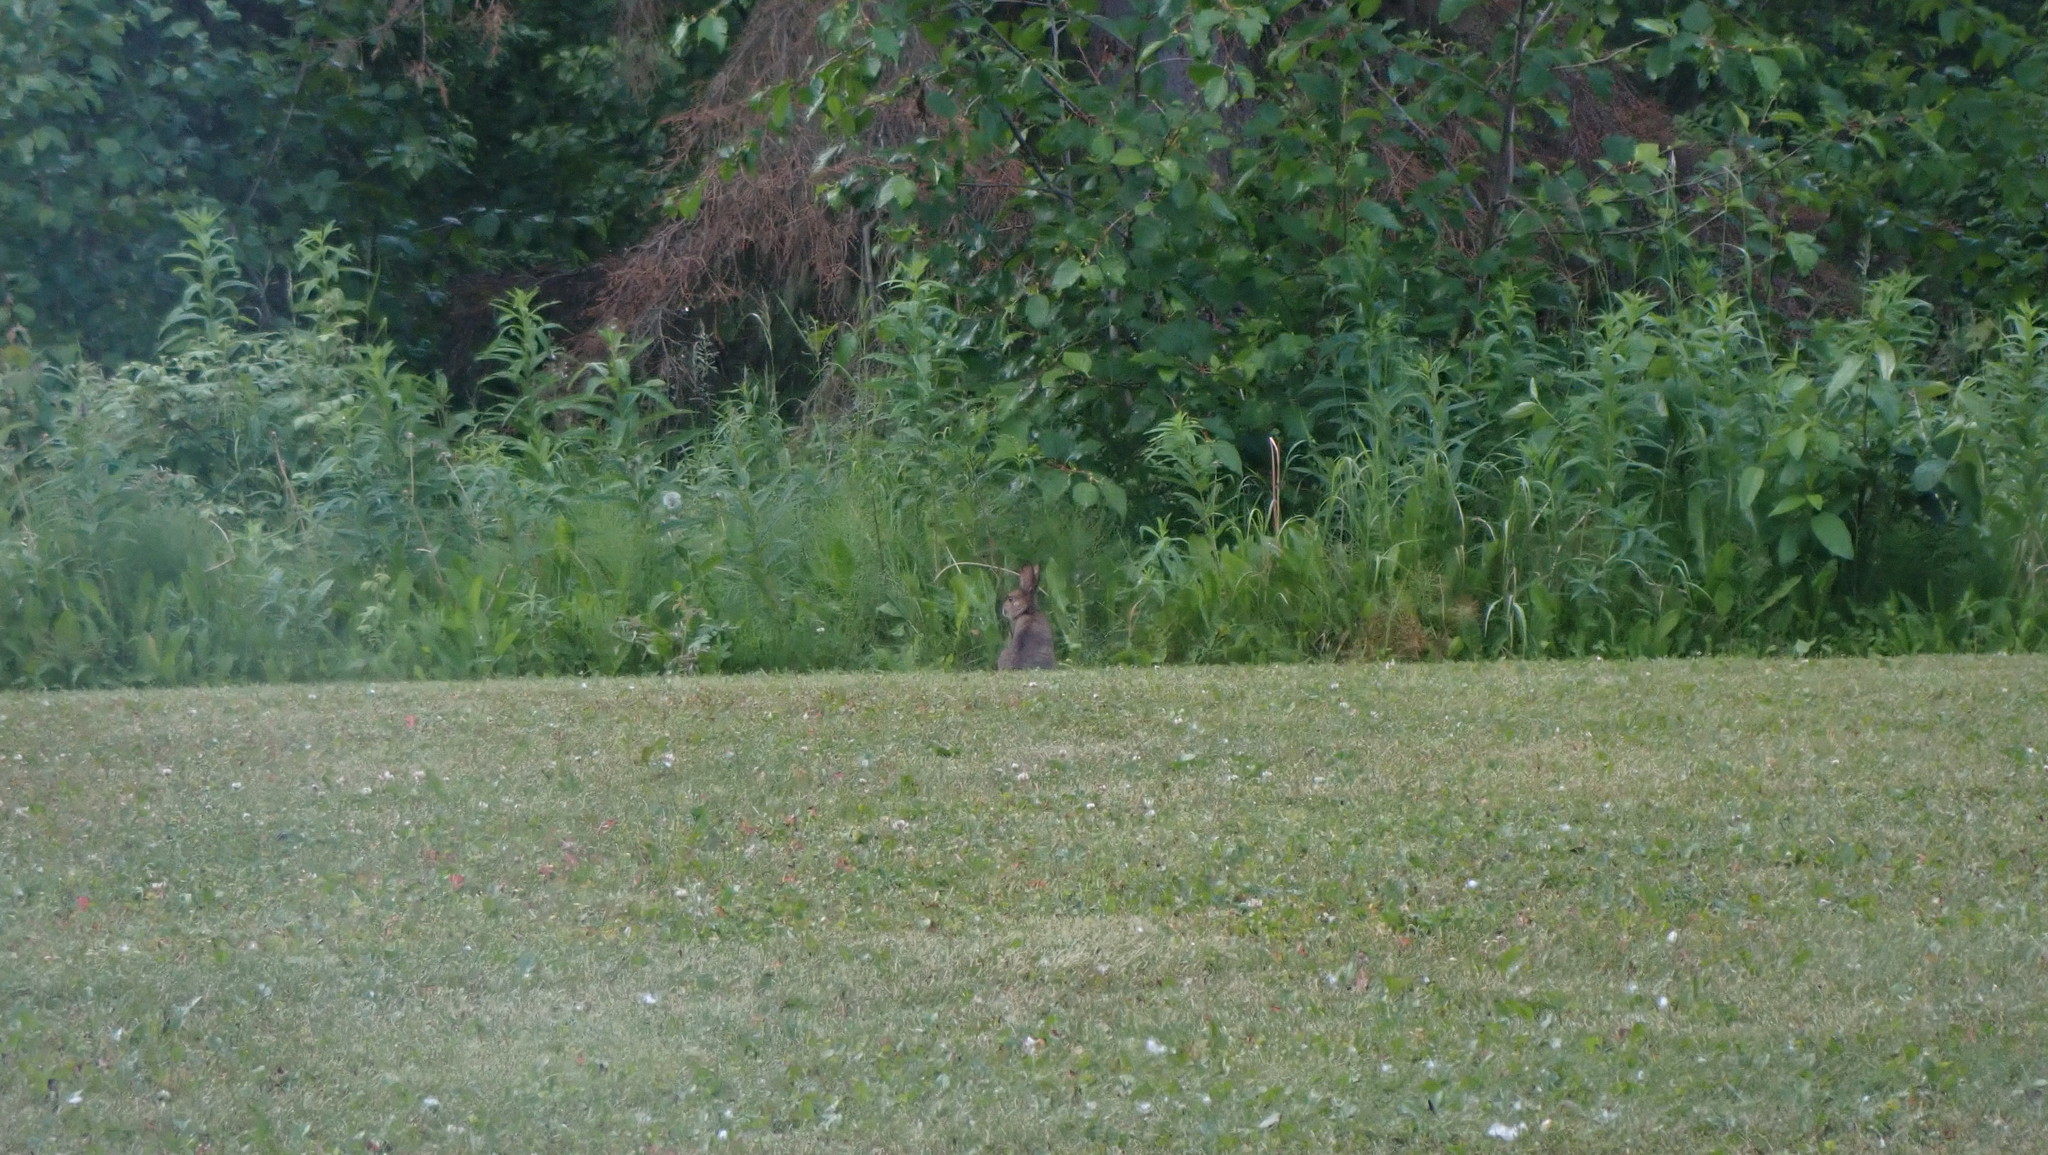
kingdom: Animalia
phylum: Chordata
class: Mammalia
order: Lagomorpha
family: Leporidae
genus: Lepus
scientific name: Lepus americanus
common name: Snowshoe hare
